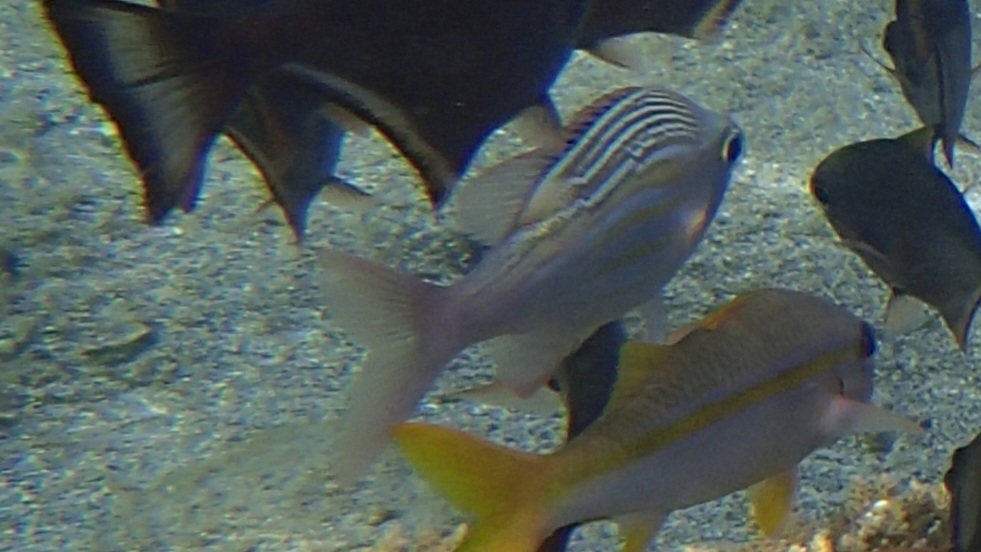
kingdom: Animalia
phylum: Chordata
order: Perciformes
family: Lethrinidae
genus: Gnathodentex
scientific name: Gnathodentex aureolineatus
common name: Gold-lined sea bream
